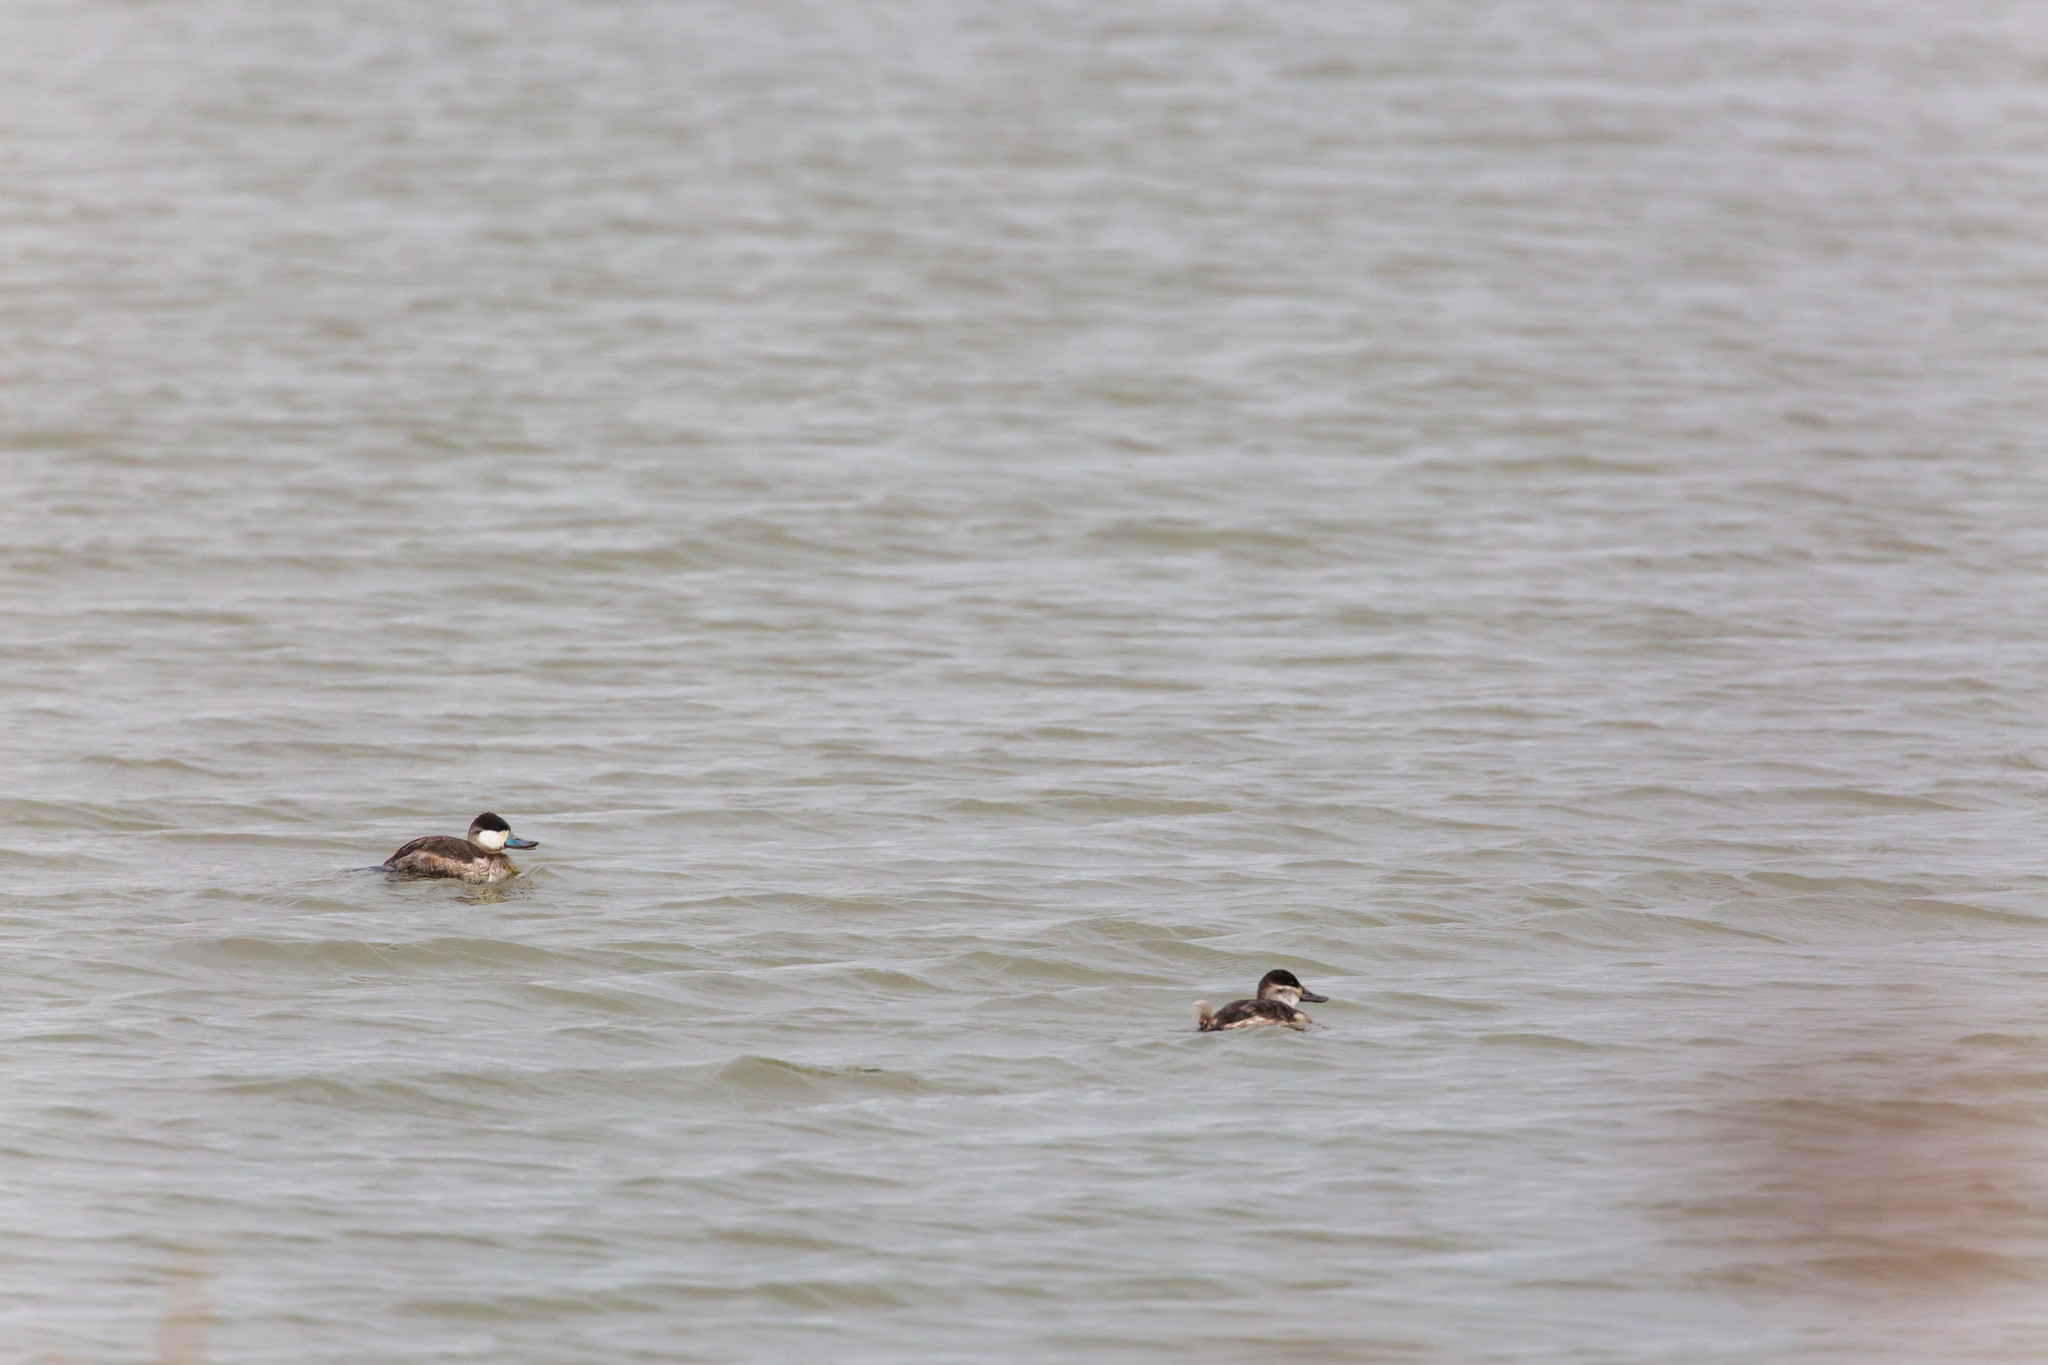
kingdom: Animalia
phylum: Chordata
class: Aves
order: Anseriformes
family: Anatidae
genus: Oxyura
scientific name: Oxyura jamaicensis
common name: Ruddy duck
